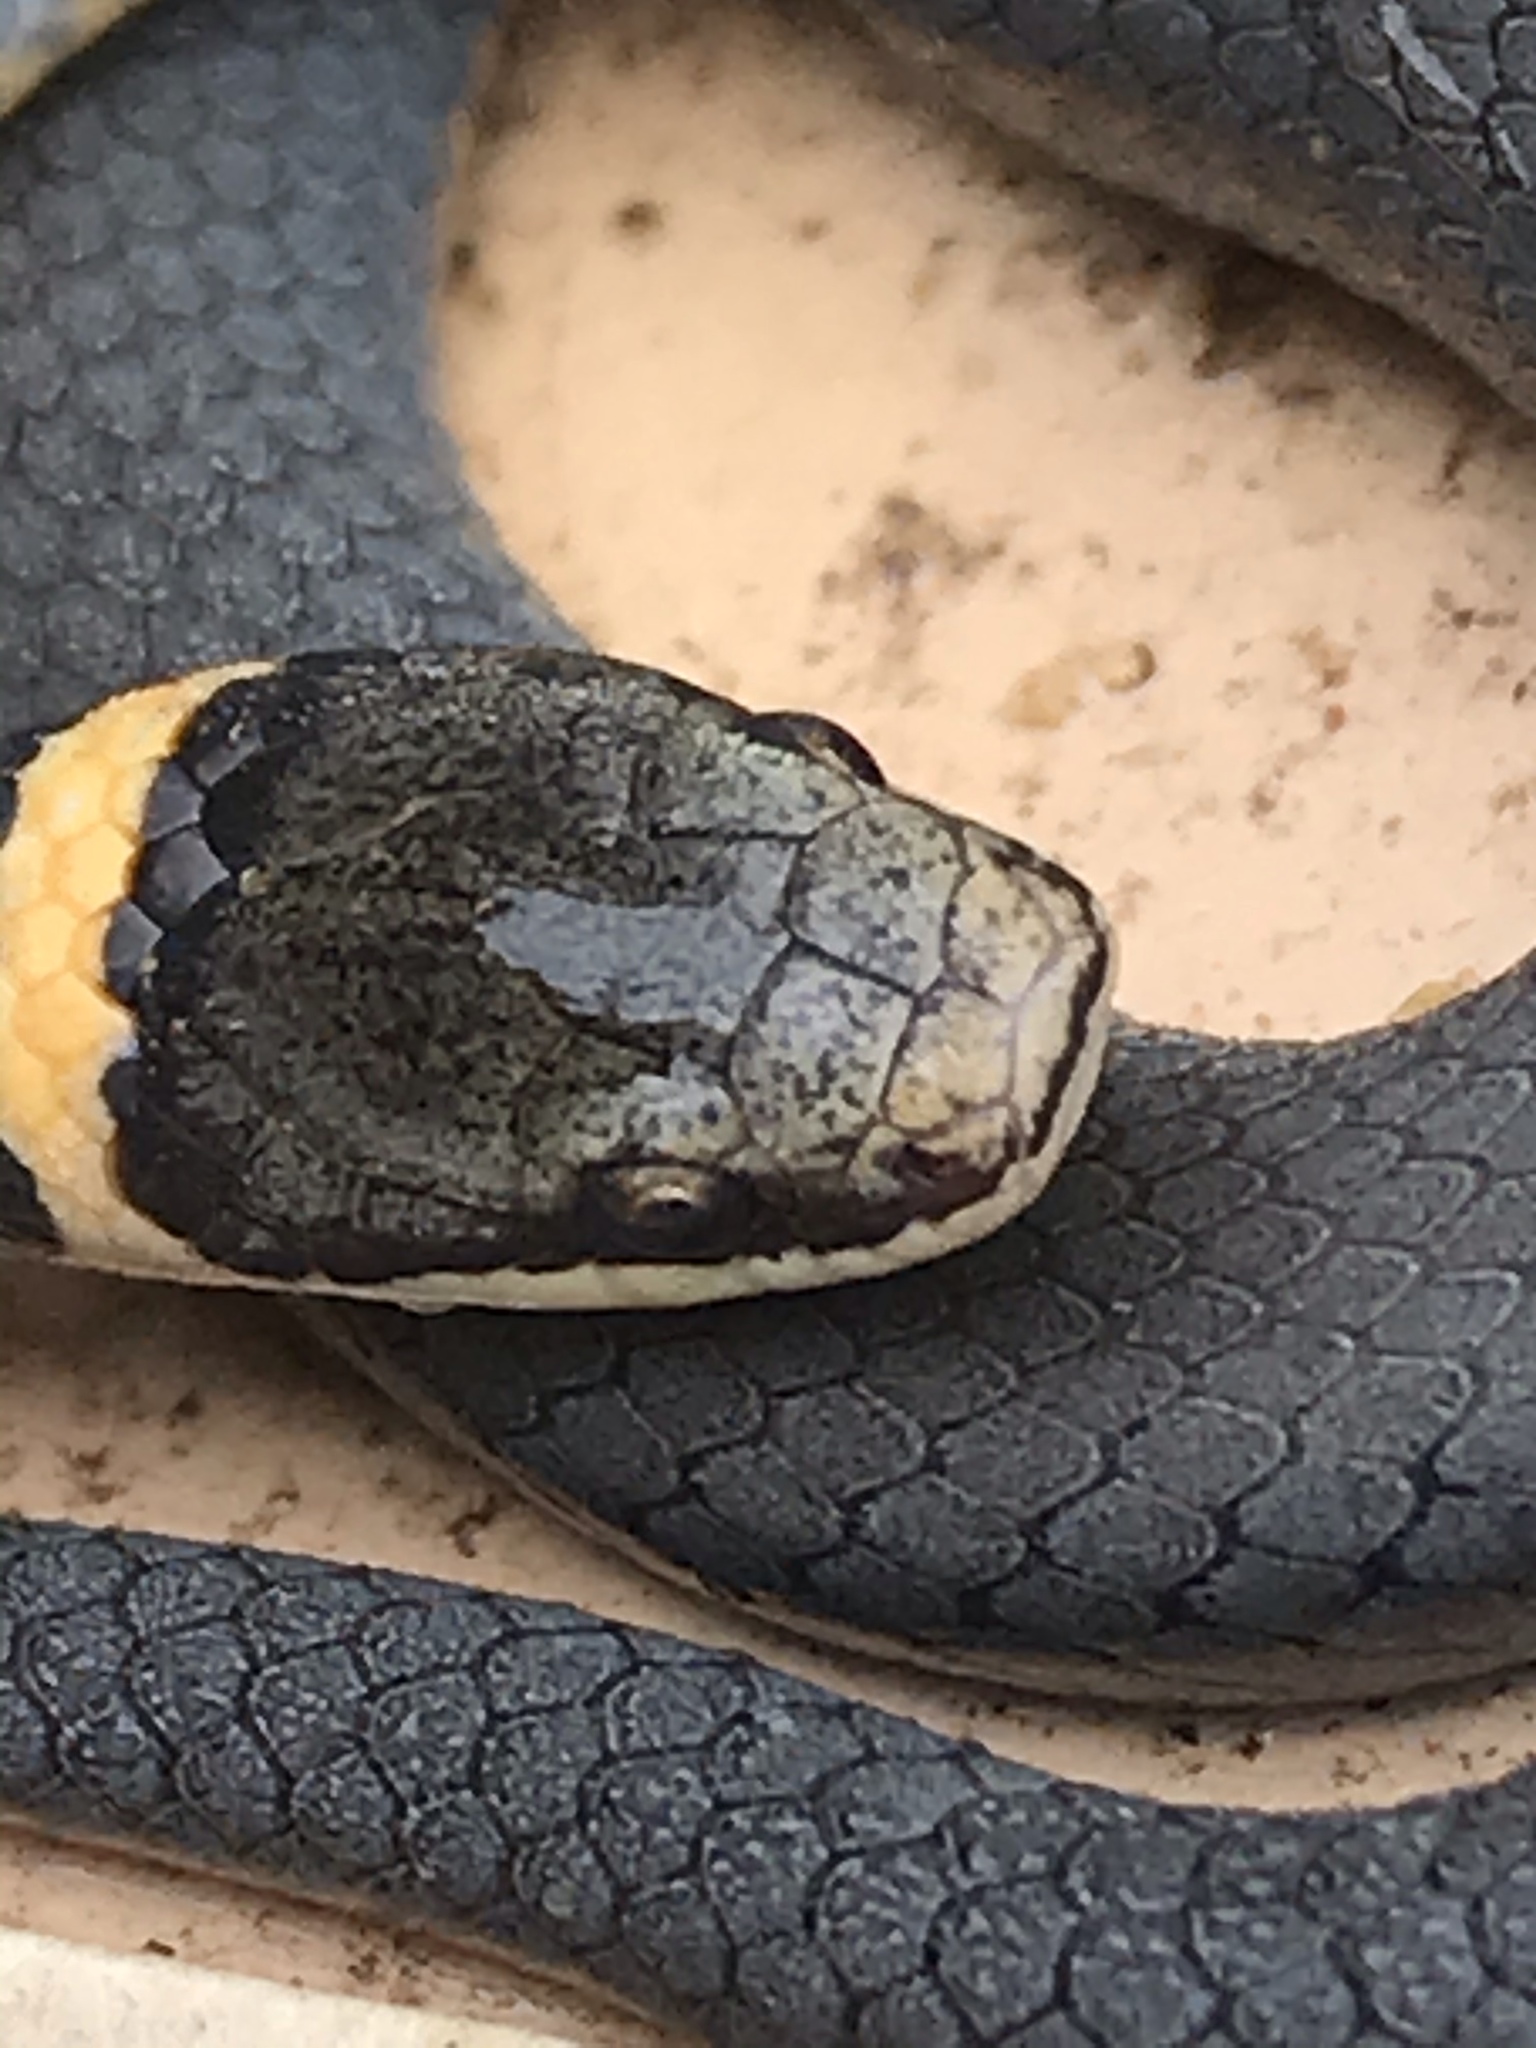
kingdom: Animalia
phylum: Chordata
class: Squamata
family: Colubridae
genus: Diadophis
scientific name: Diadophis punctatus
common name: Ringneck snake
